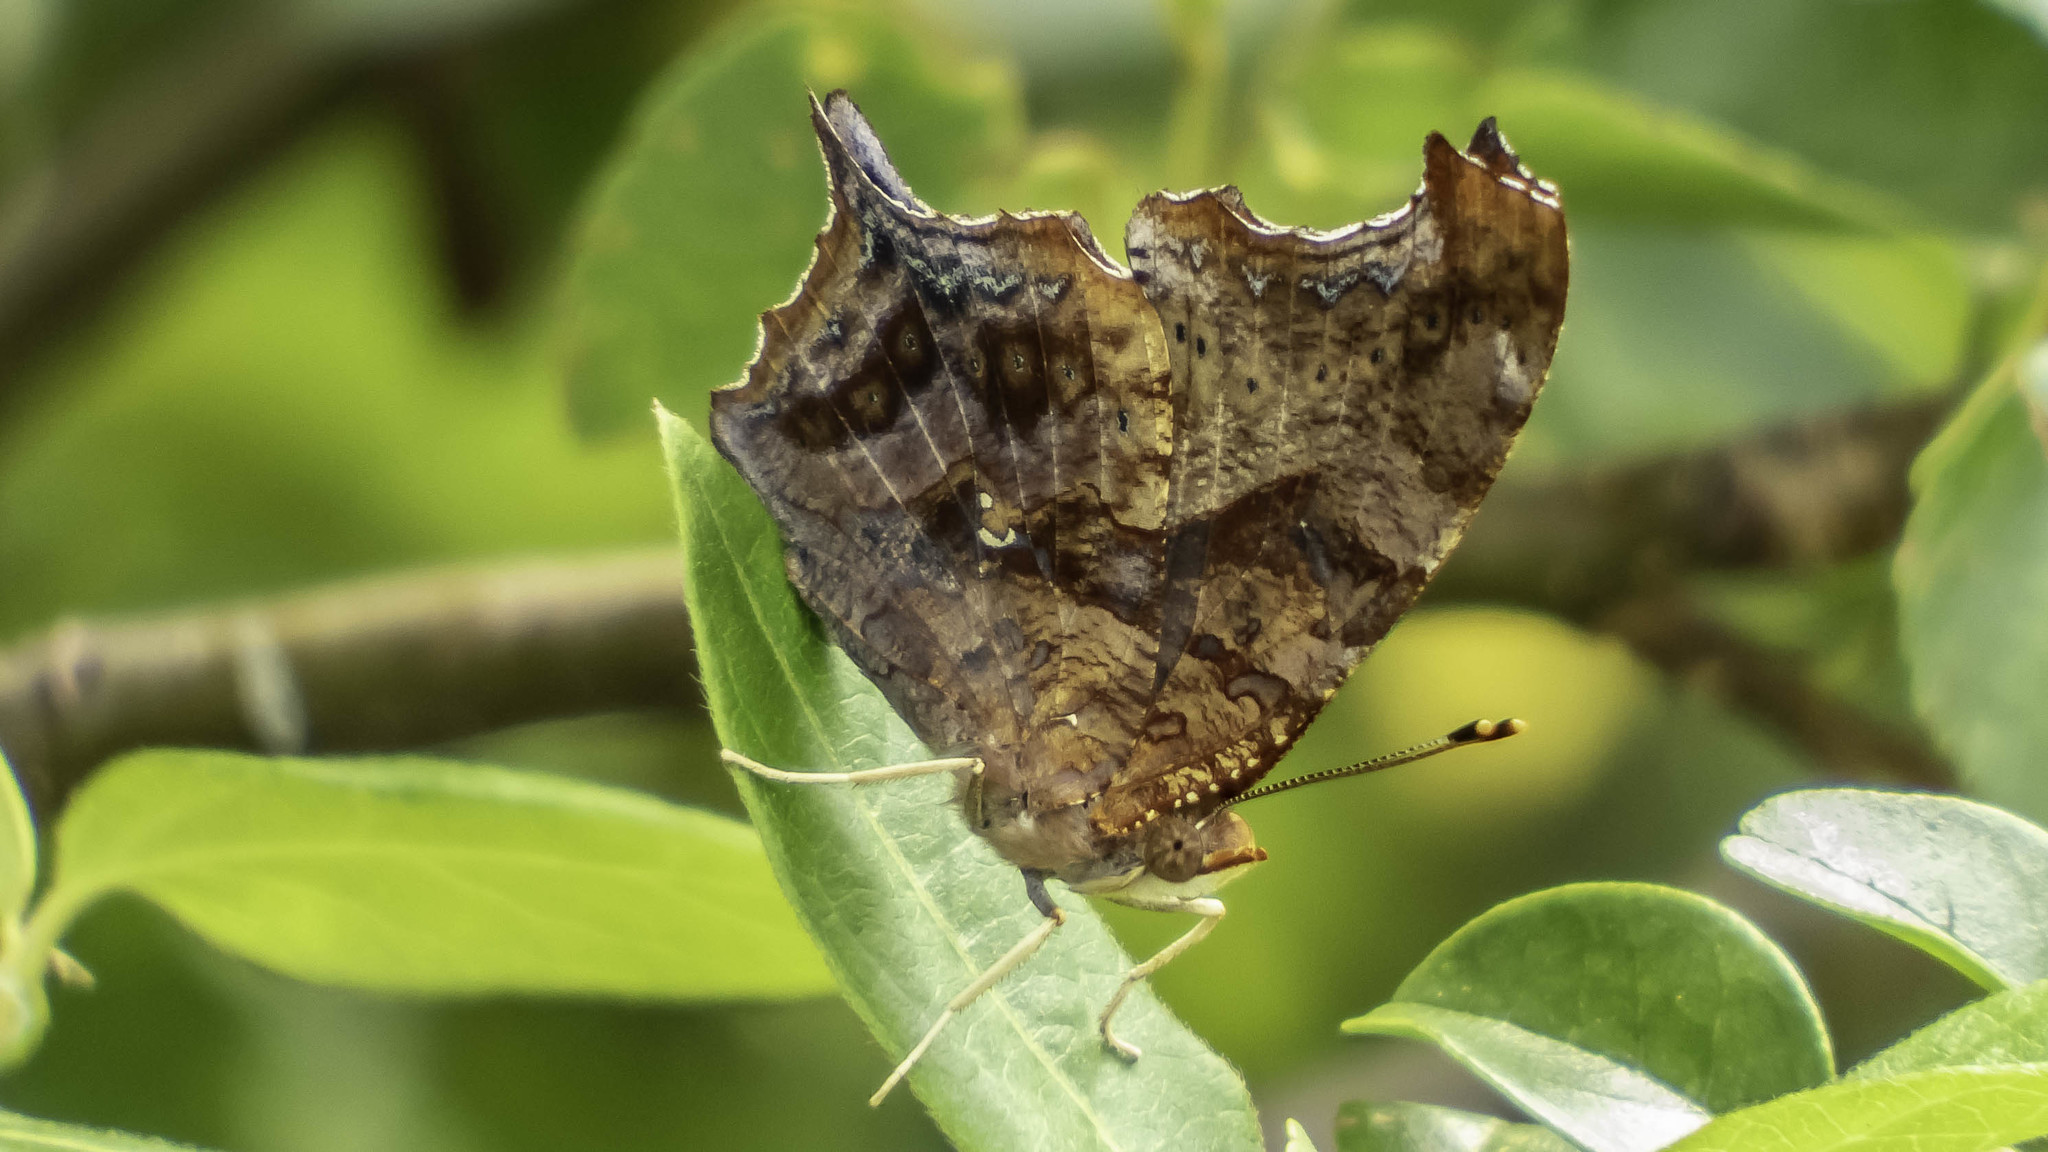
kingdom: Animalia
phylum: Arthropoda
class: Insecta
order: Lepidoptera
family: Nymphalidae
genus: Polygonia
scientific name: Polygonia interrogationis
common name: Question mark
